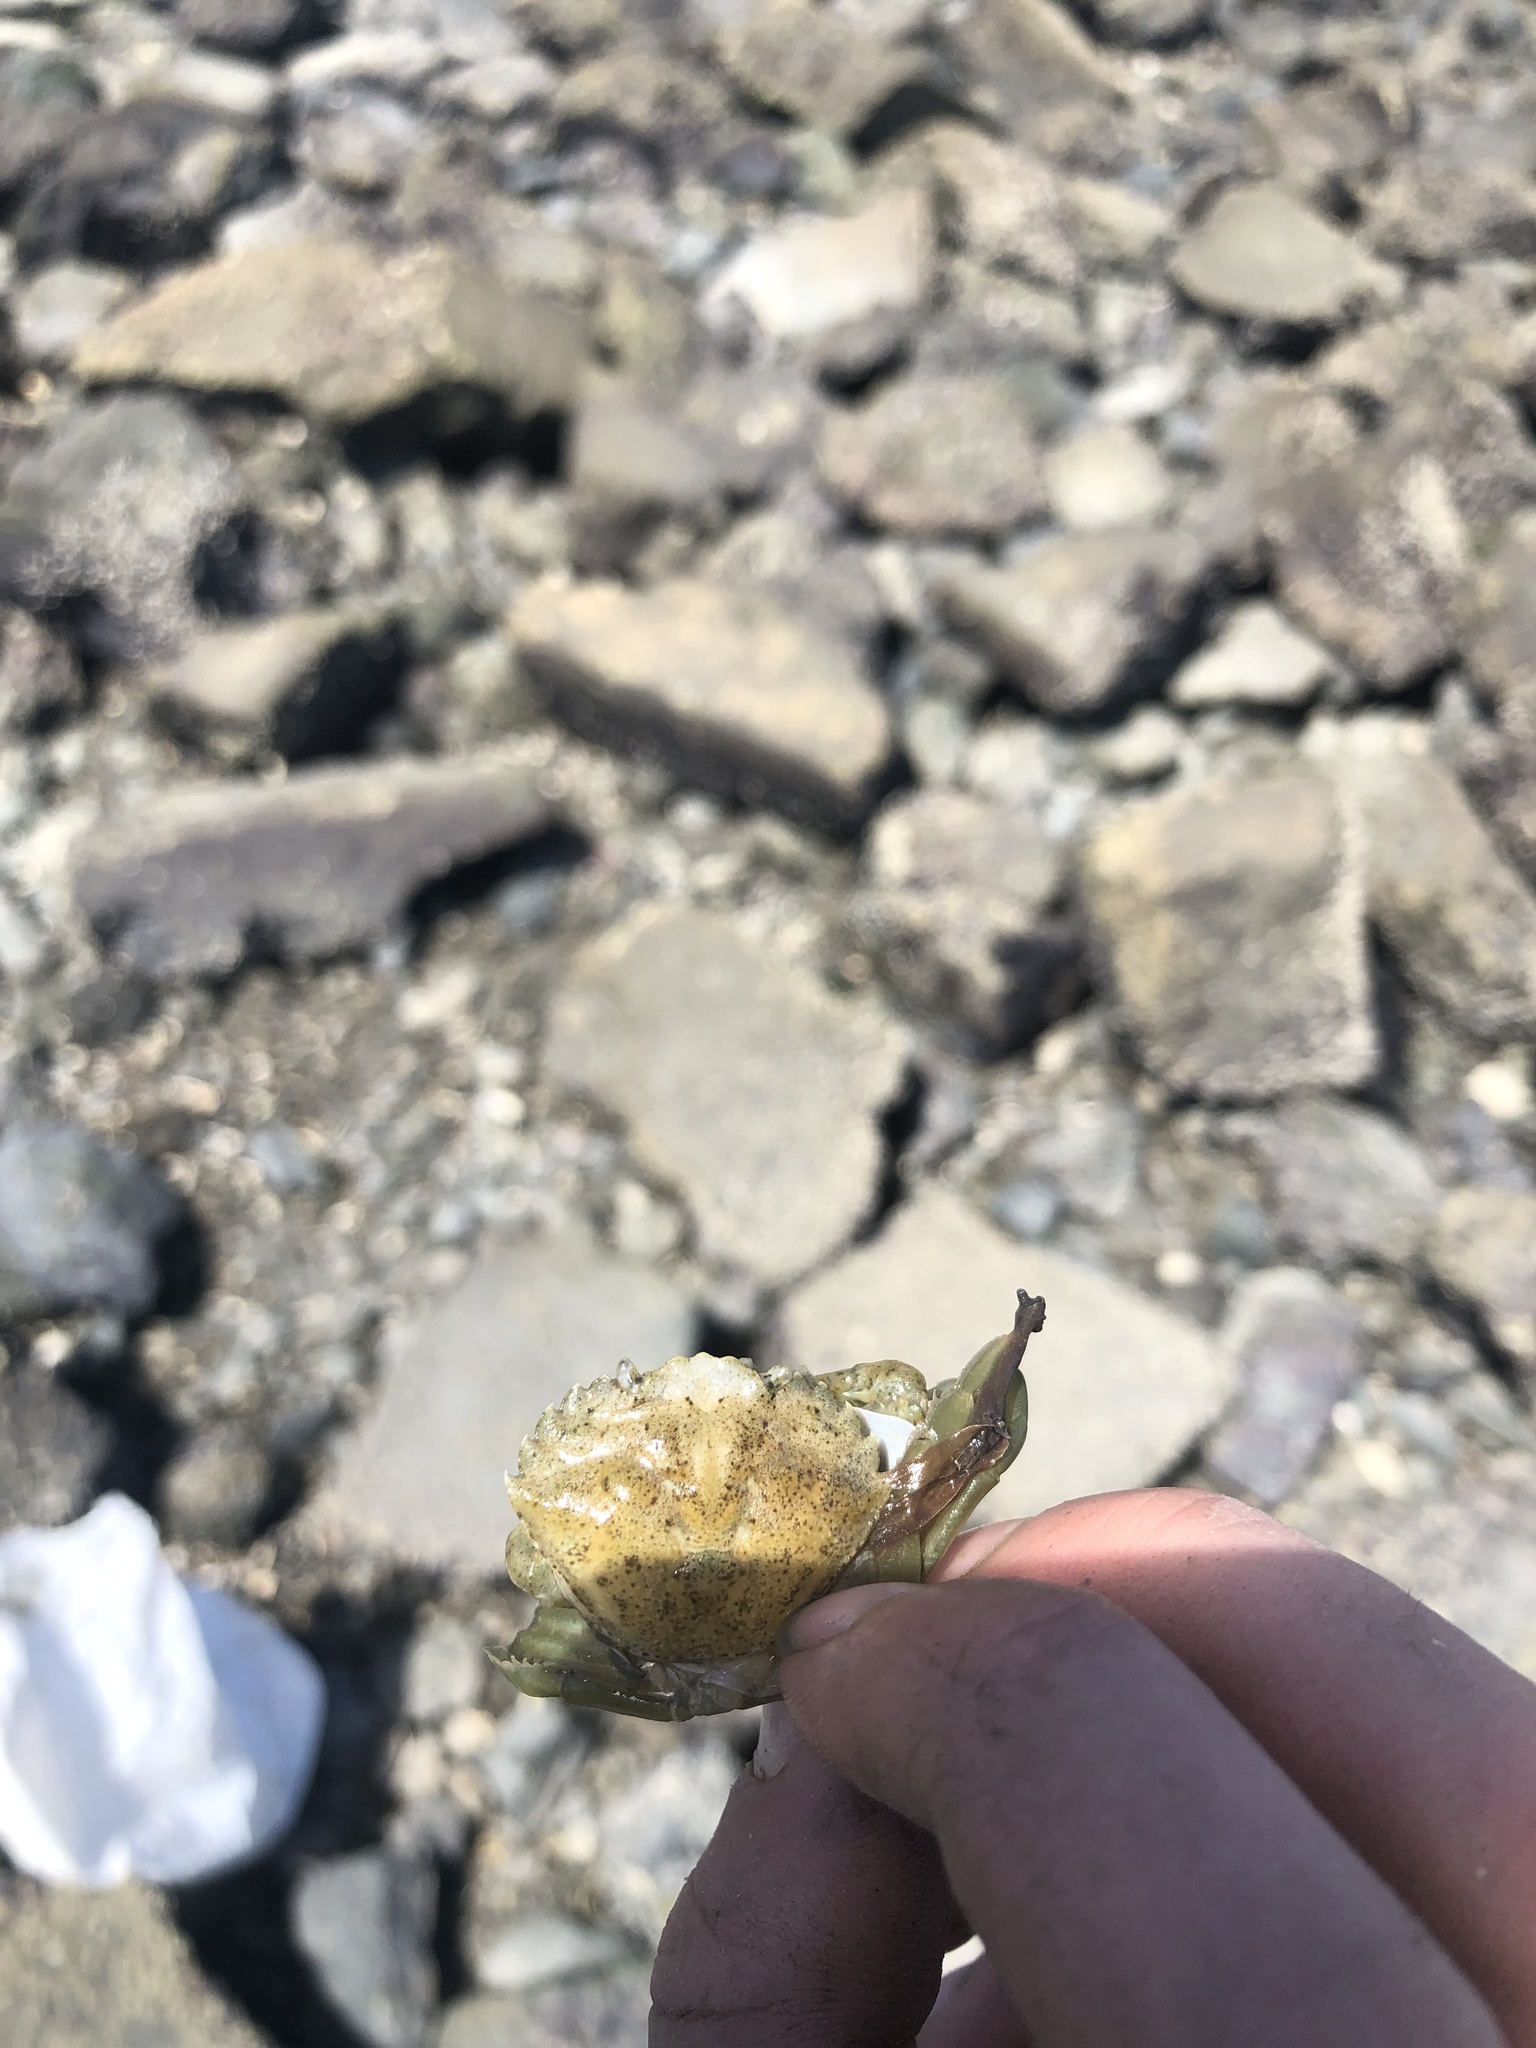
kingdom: Animalia
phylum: Arthropoda
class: Malacostraca
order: Decapoda
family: Carcinidae
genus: Carcinus
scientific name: Carcinus maenas
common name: European green crab
